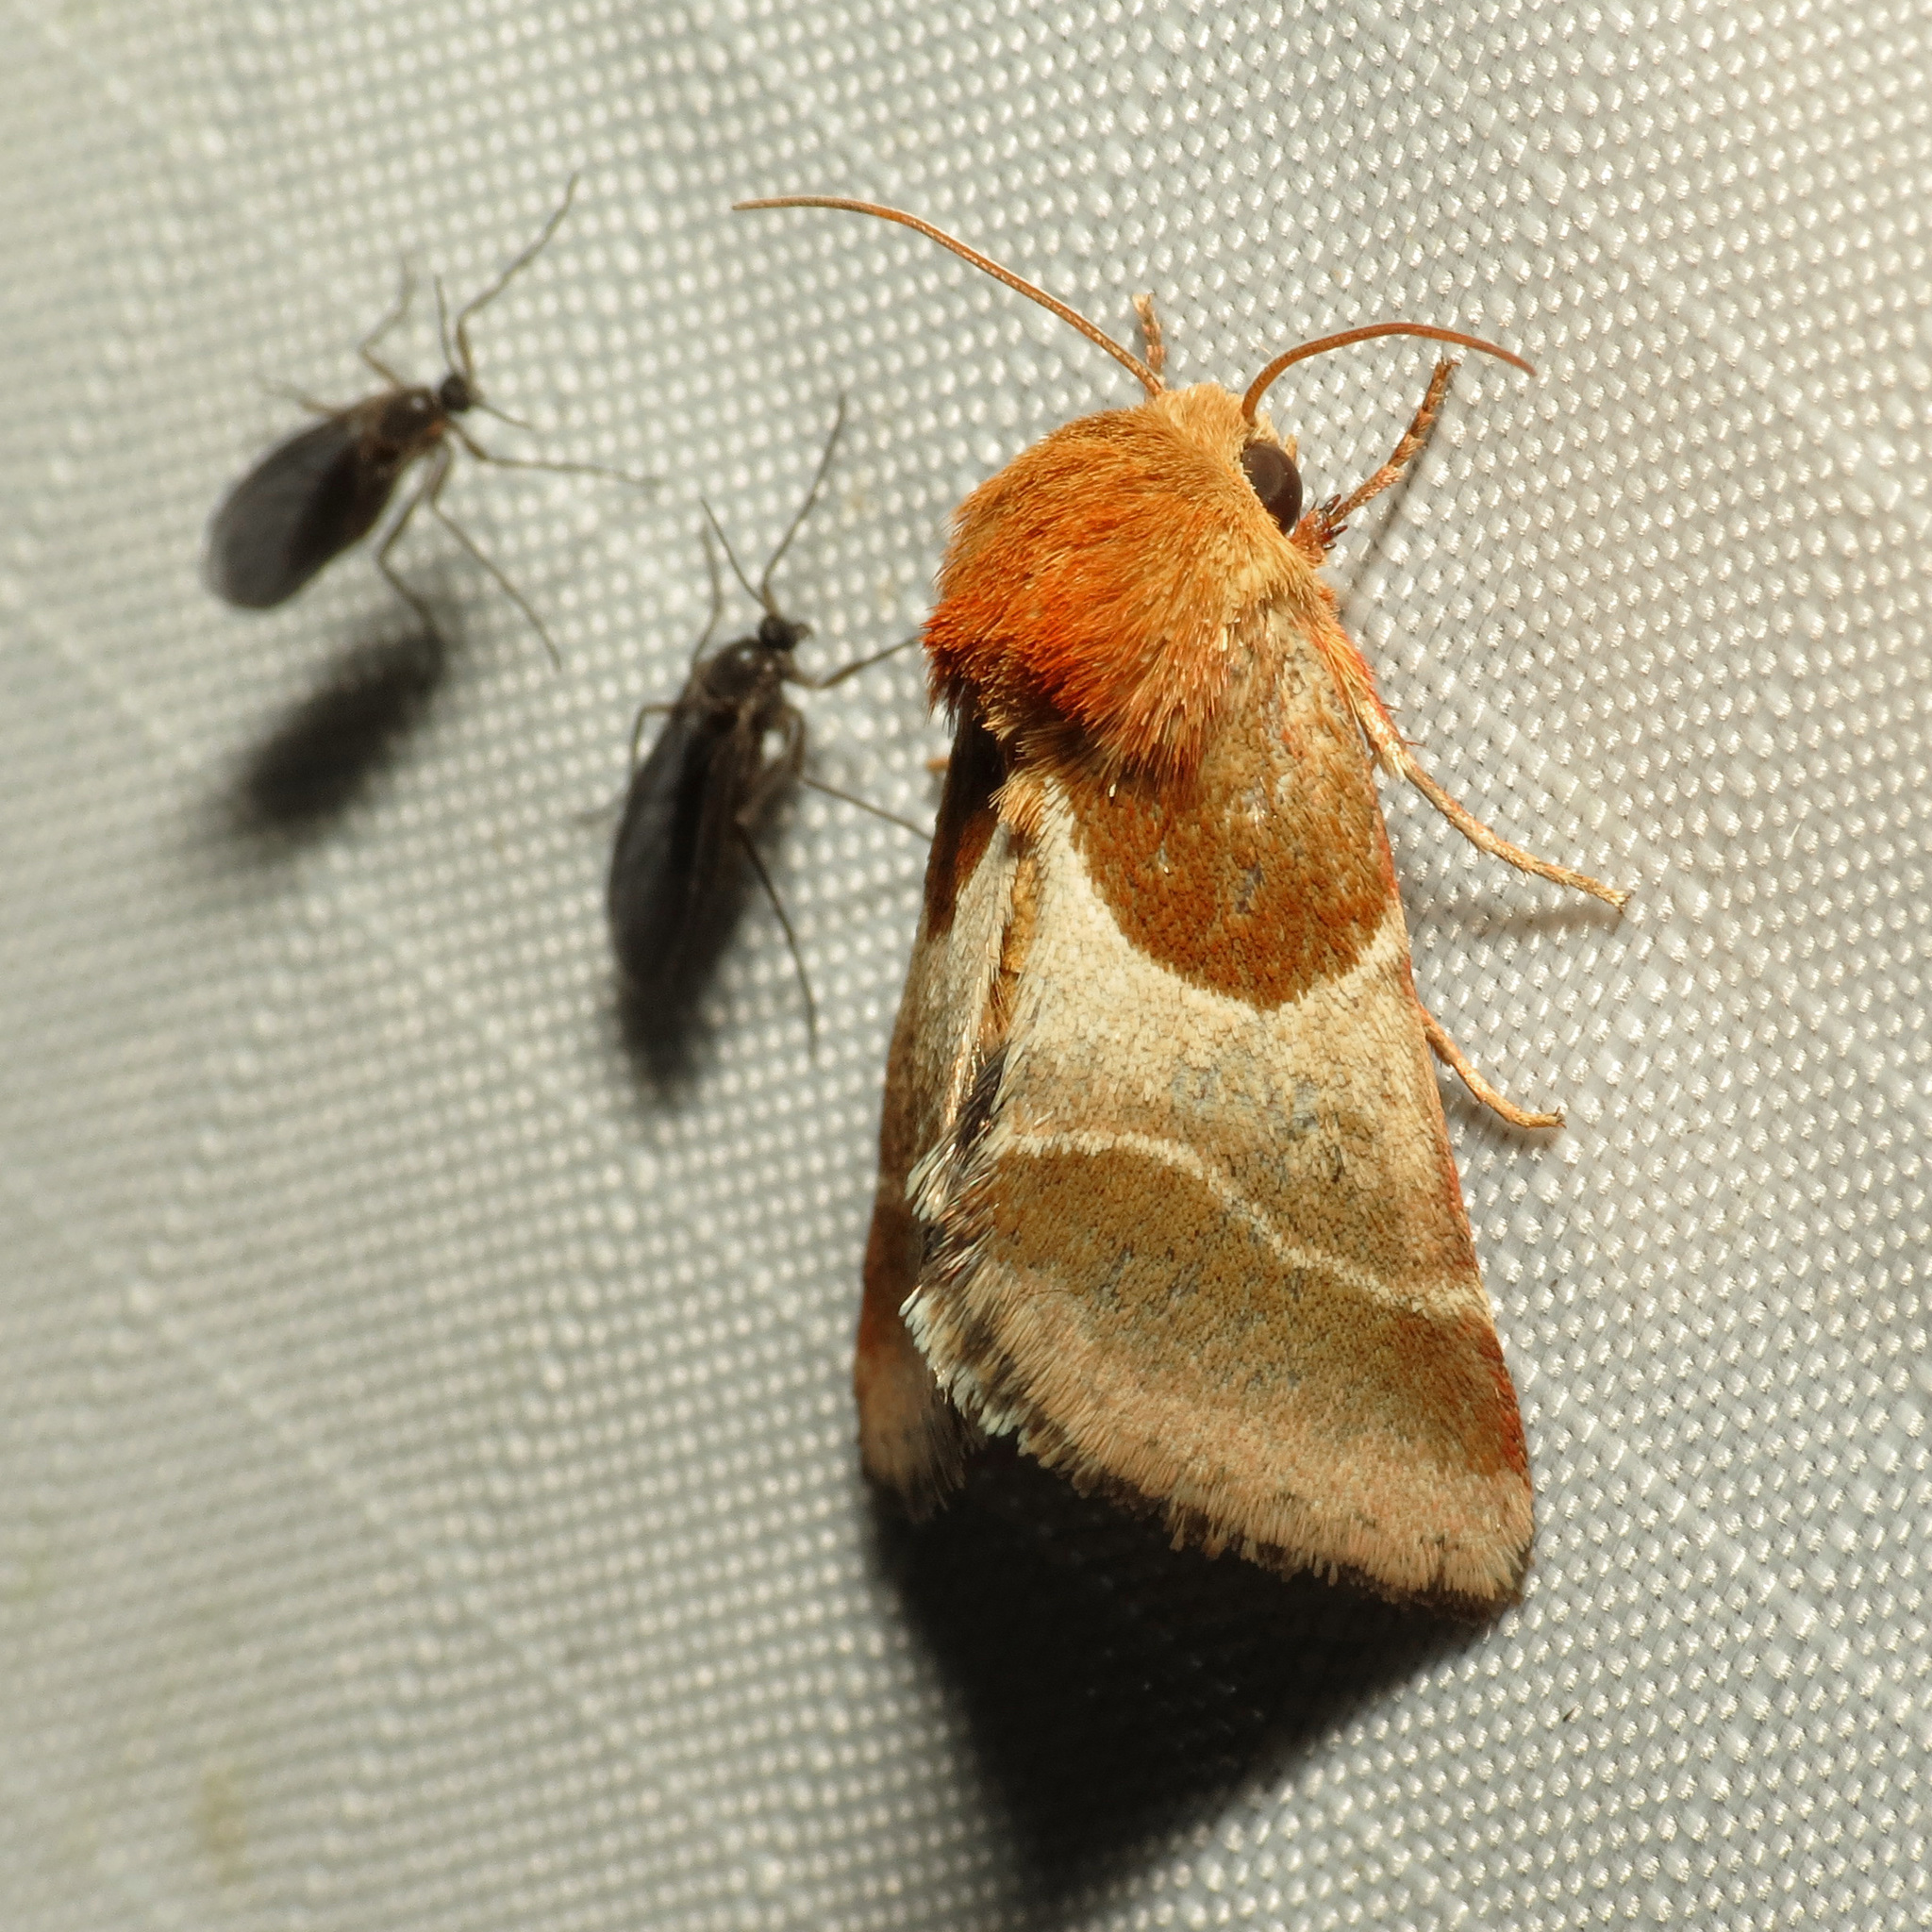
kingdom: Animalia
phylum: Arthropoda
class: Insecta
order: Lepidoptera
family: Noctuidae
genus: Schinia
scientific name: Schinia arcigera
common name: Arcigera flower moth
